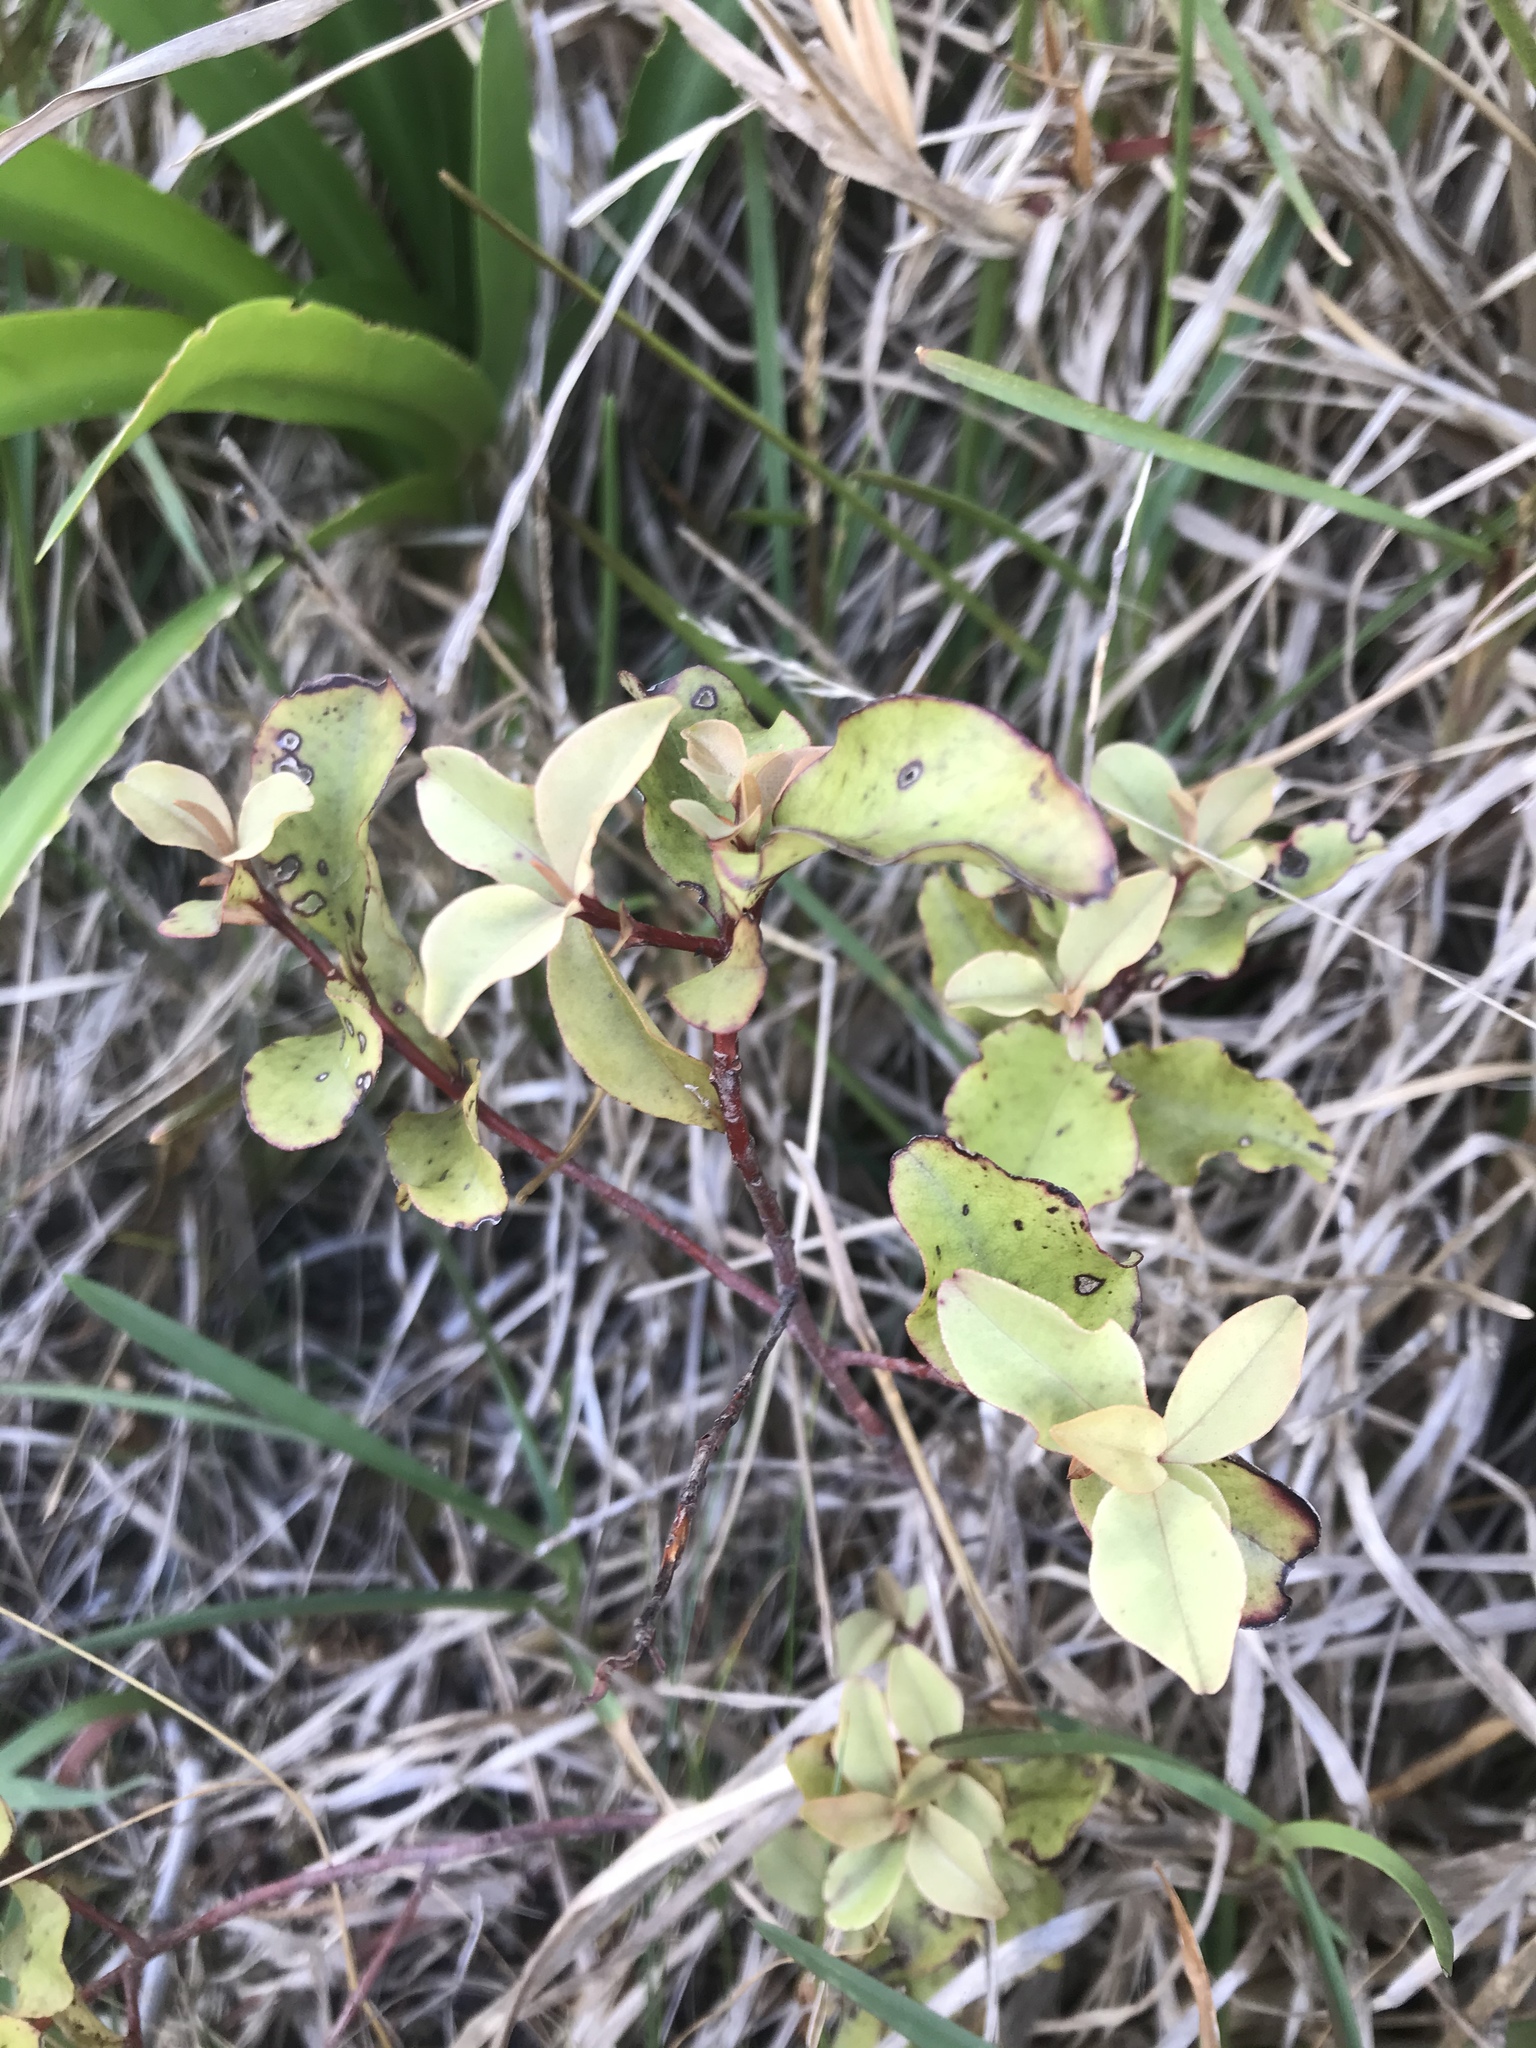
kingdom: Plantae
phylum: Tracheophyta
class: Magnoliopsida
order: Ericales
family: Primulaceae
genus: Myrsine
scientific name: Myrsine australis
